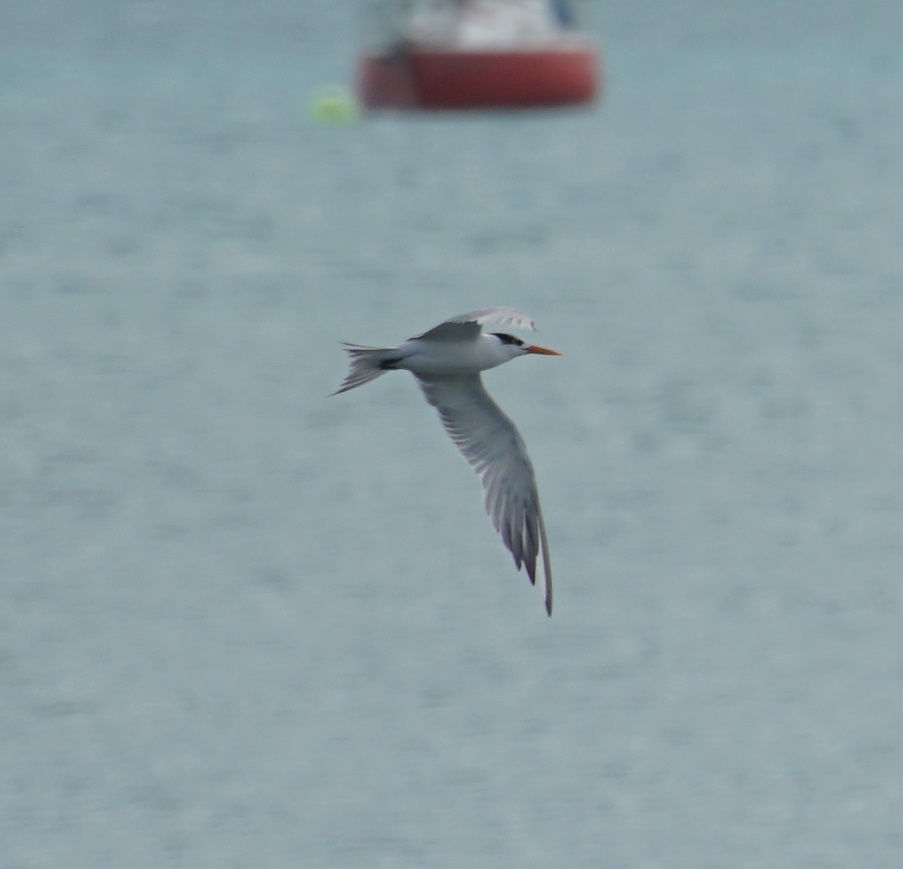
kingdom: Animalia
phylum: Chordata
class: Aves
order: Charadriiformes
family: Laridae
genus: Thalasseus
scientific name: Thalasseus bengalensis
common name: Lesser crested tern
